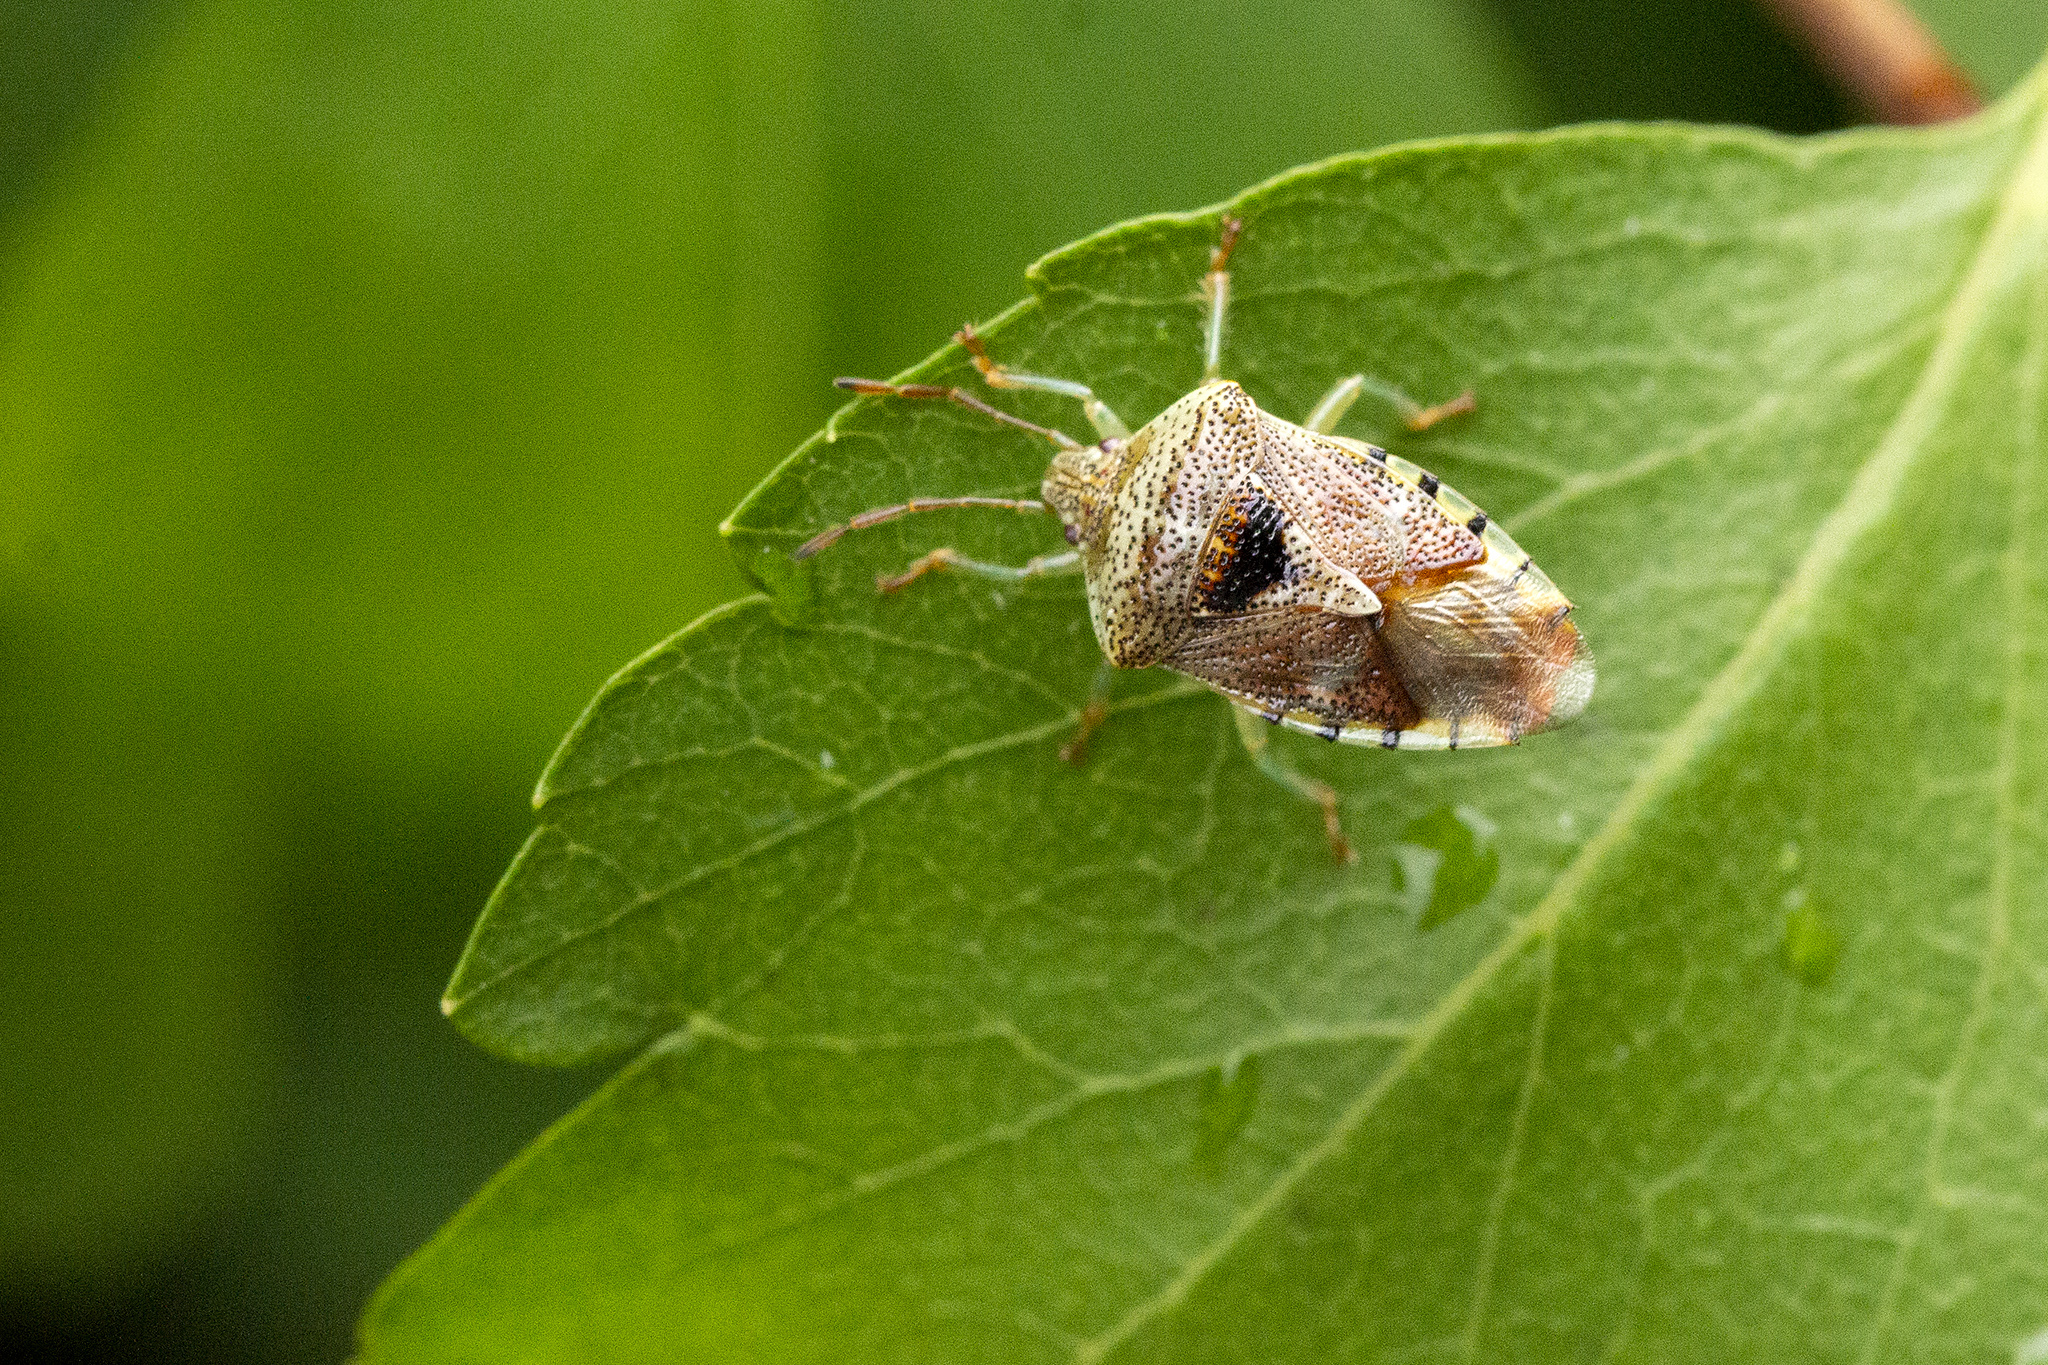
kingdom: Animalia
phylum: Arthropoda
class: Insecta
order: Hemiptera
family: Acanthosomatidae
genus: Elasmucha
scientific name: Elasmucha grisea
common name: Parent bug
